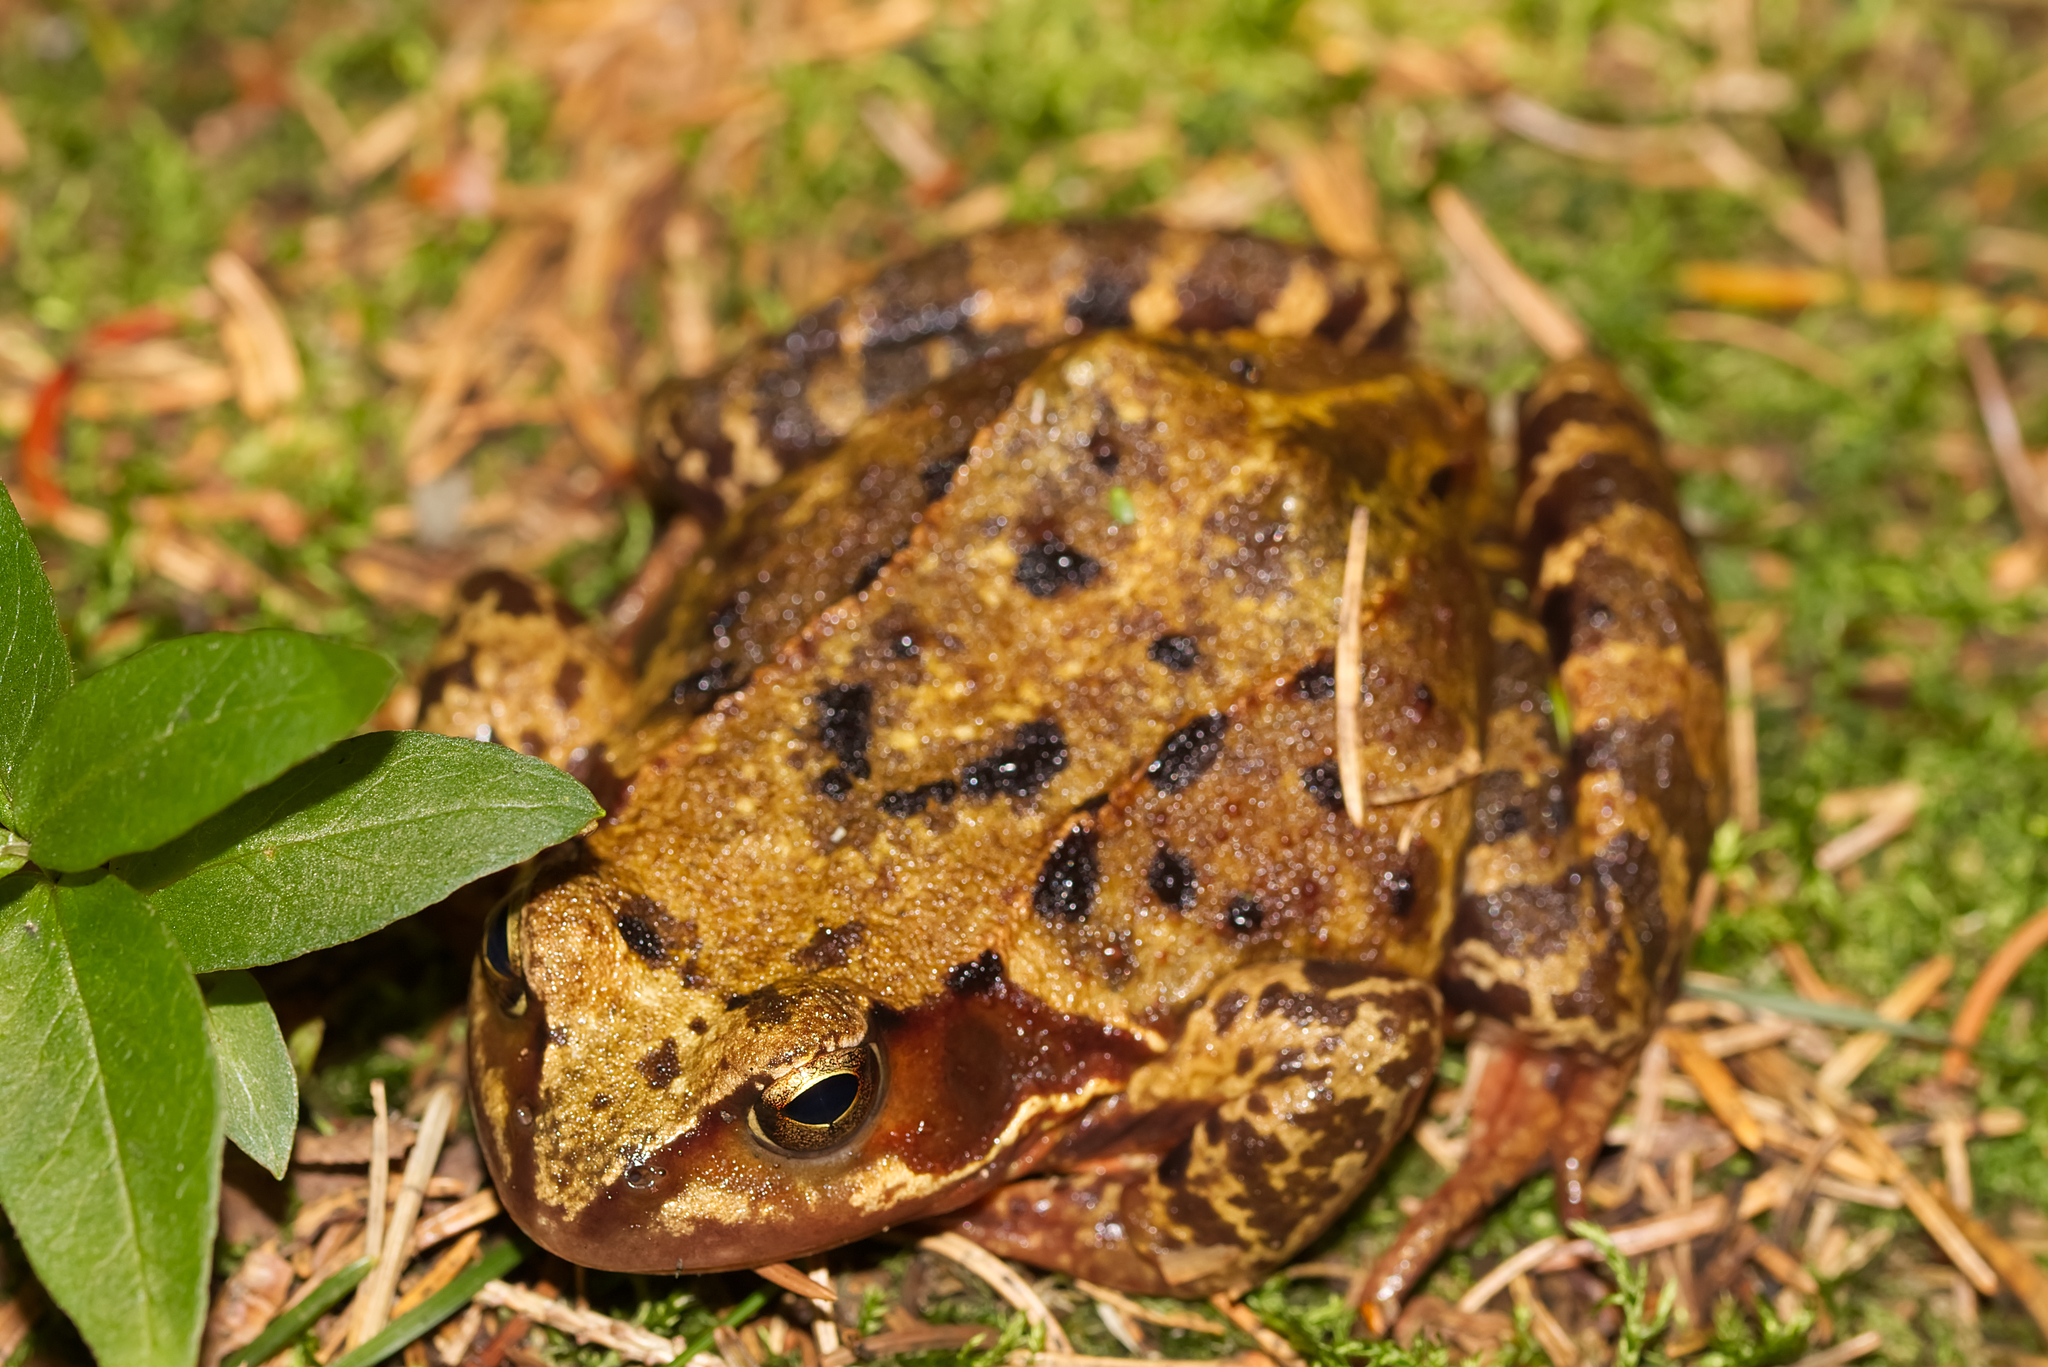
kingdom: Animalia
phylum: Chordata
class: Amphibia
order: Anura
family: Ranidae
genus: Rana
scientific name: Rana temporaria
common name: Common frog
